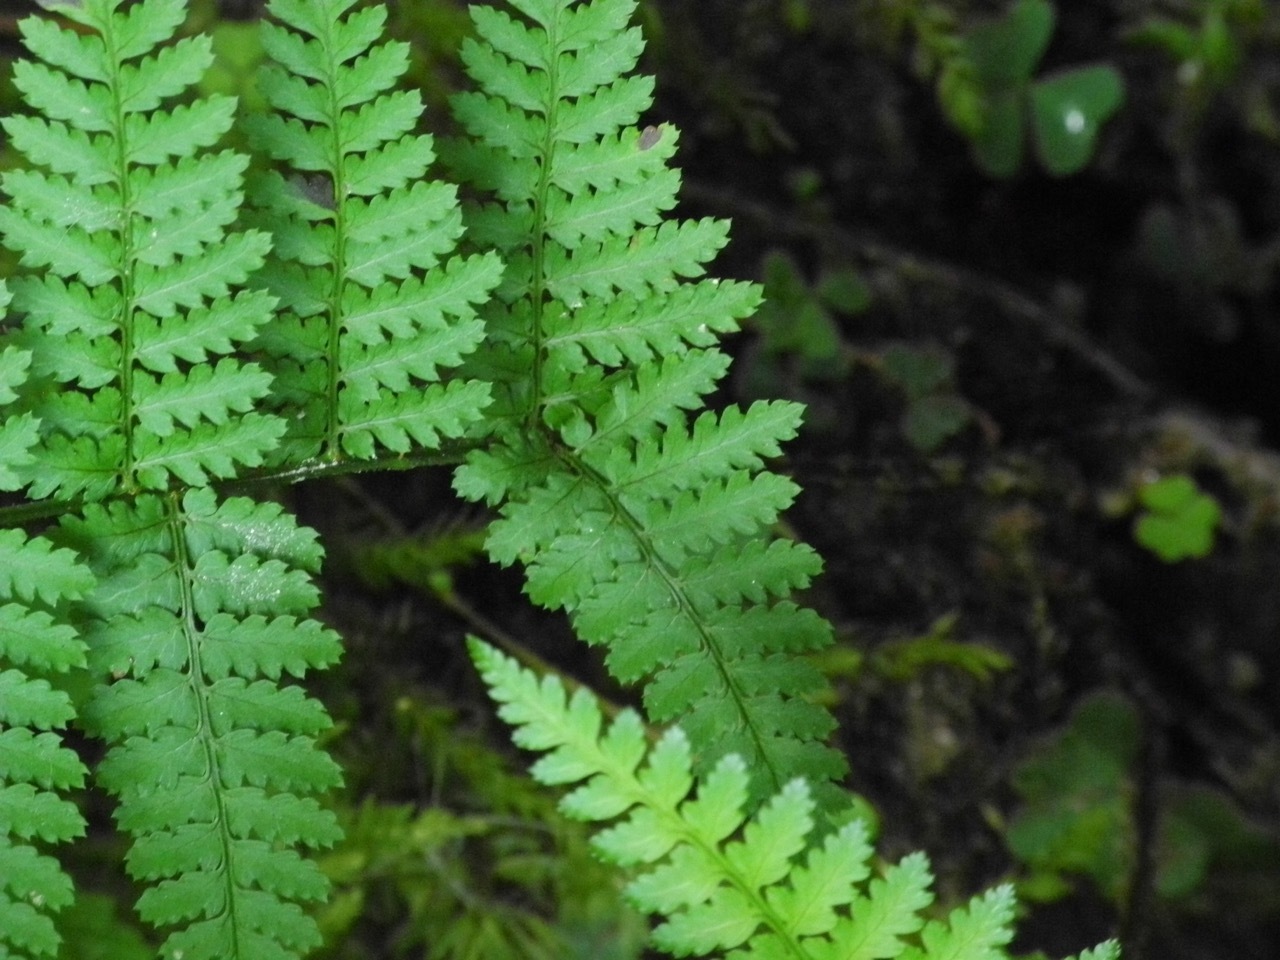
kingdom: Plantae
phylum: Tracheophyta
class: Polypodiopsida
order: Polypodiales
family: Dryopteridaceae
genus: Dryopteris
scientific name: Dryopteris intermedia
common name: Evergreen wood fern
